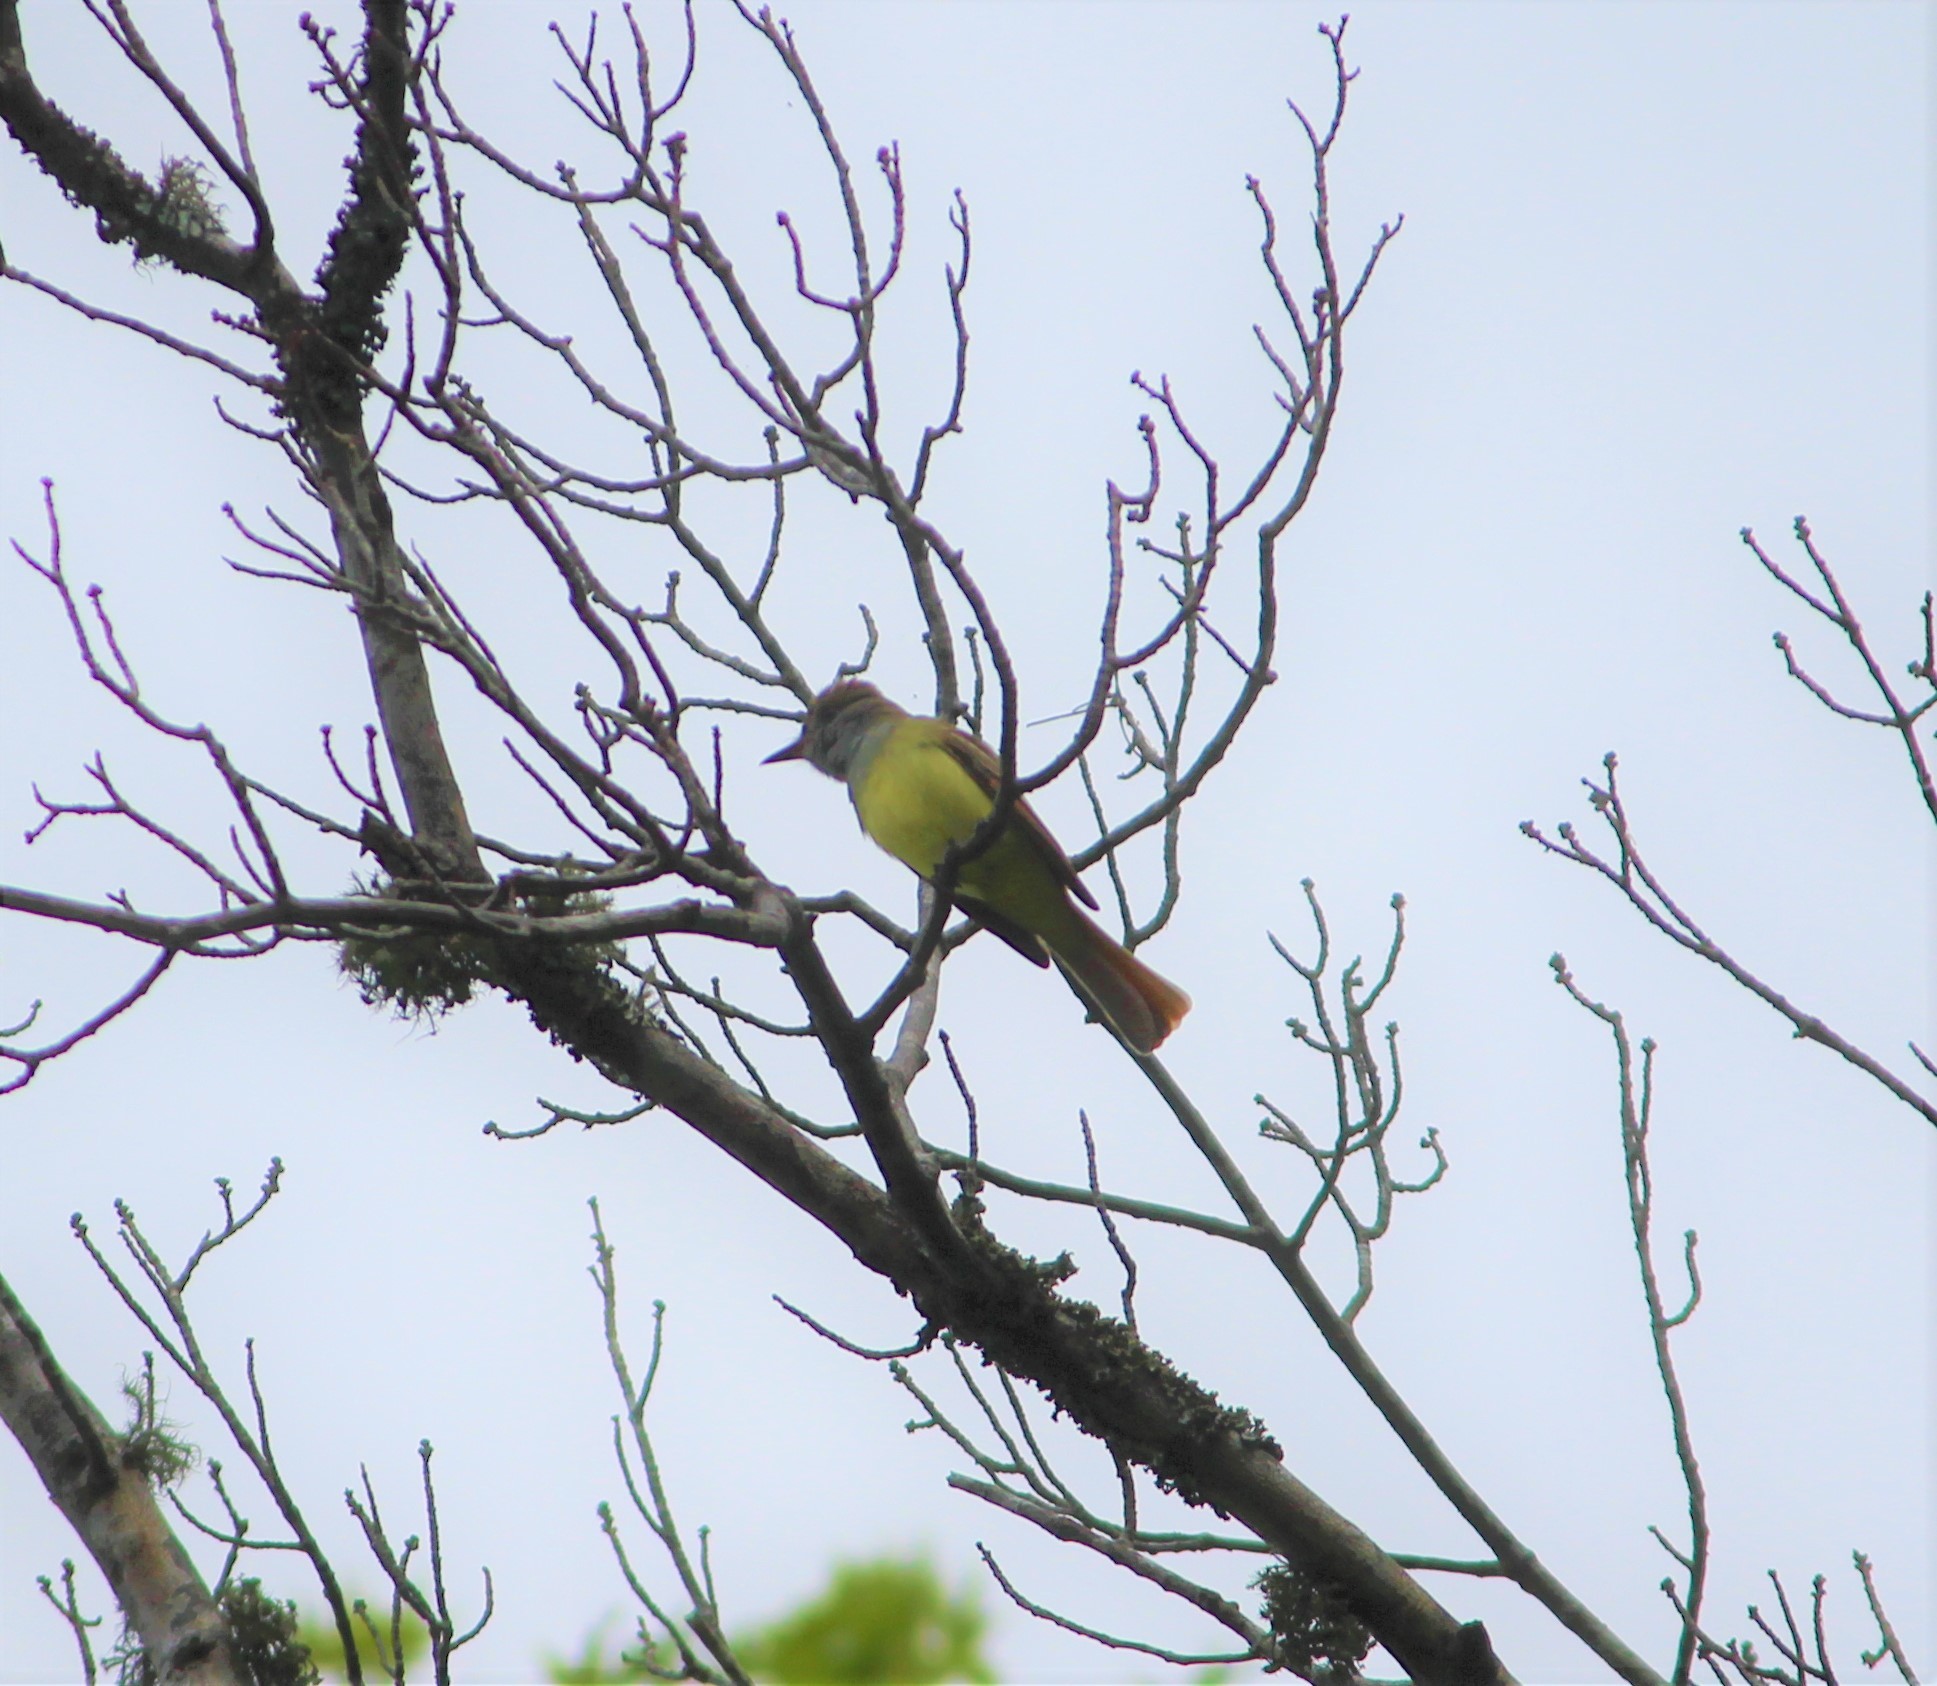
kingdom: Animalia
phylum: Chordata
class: Aves
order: Passeriformes
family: Tyrannidae
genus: Myiarchus
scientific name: Myiarchus crinitus
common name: Great crested flycatcher
